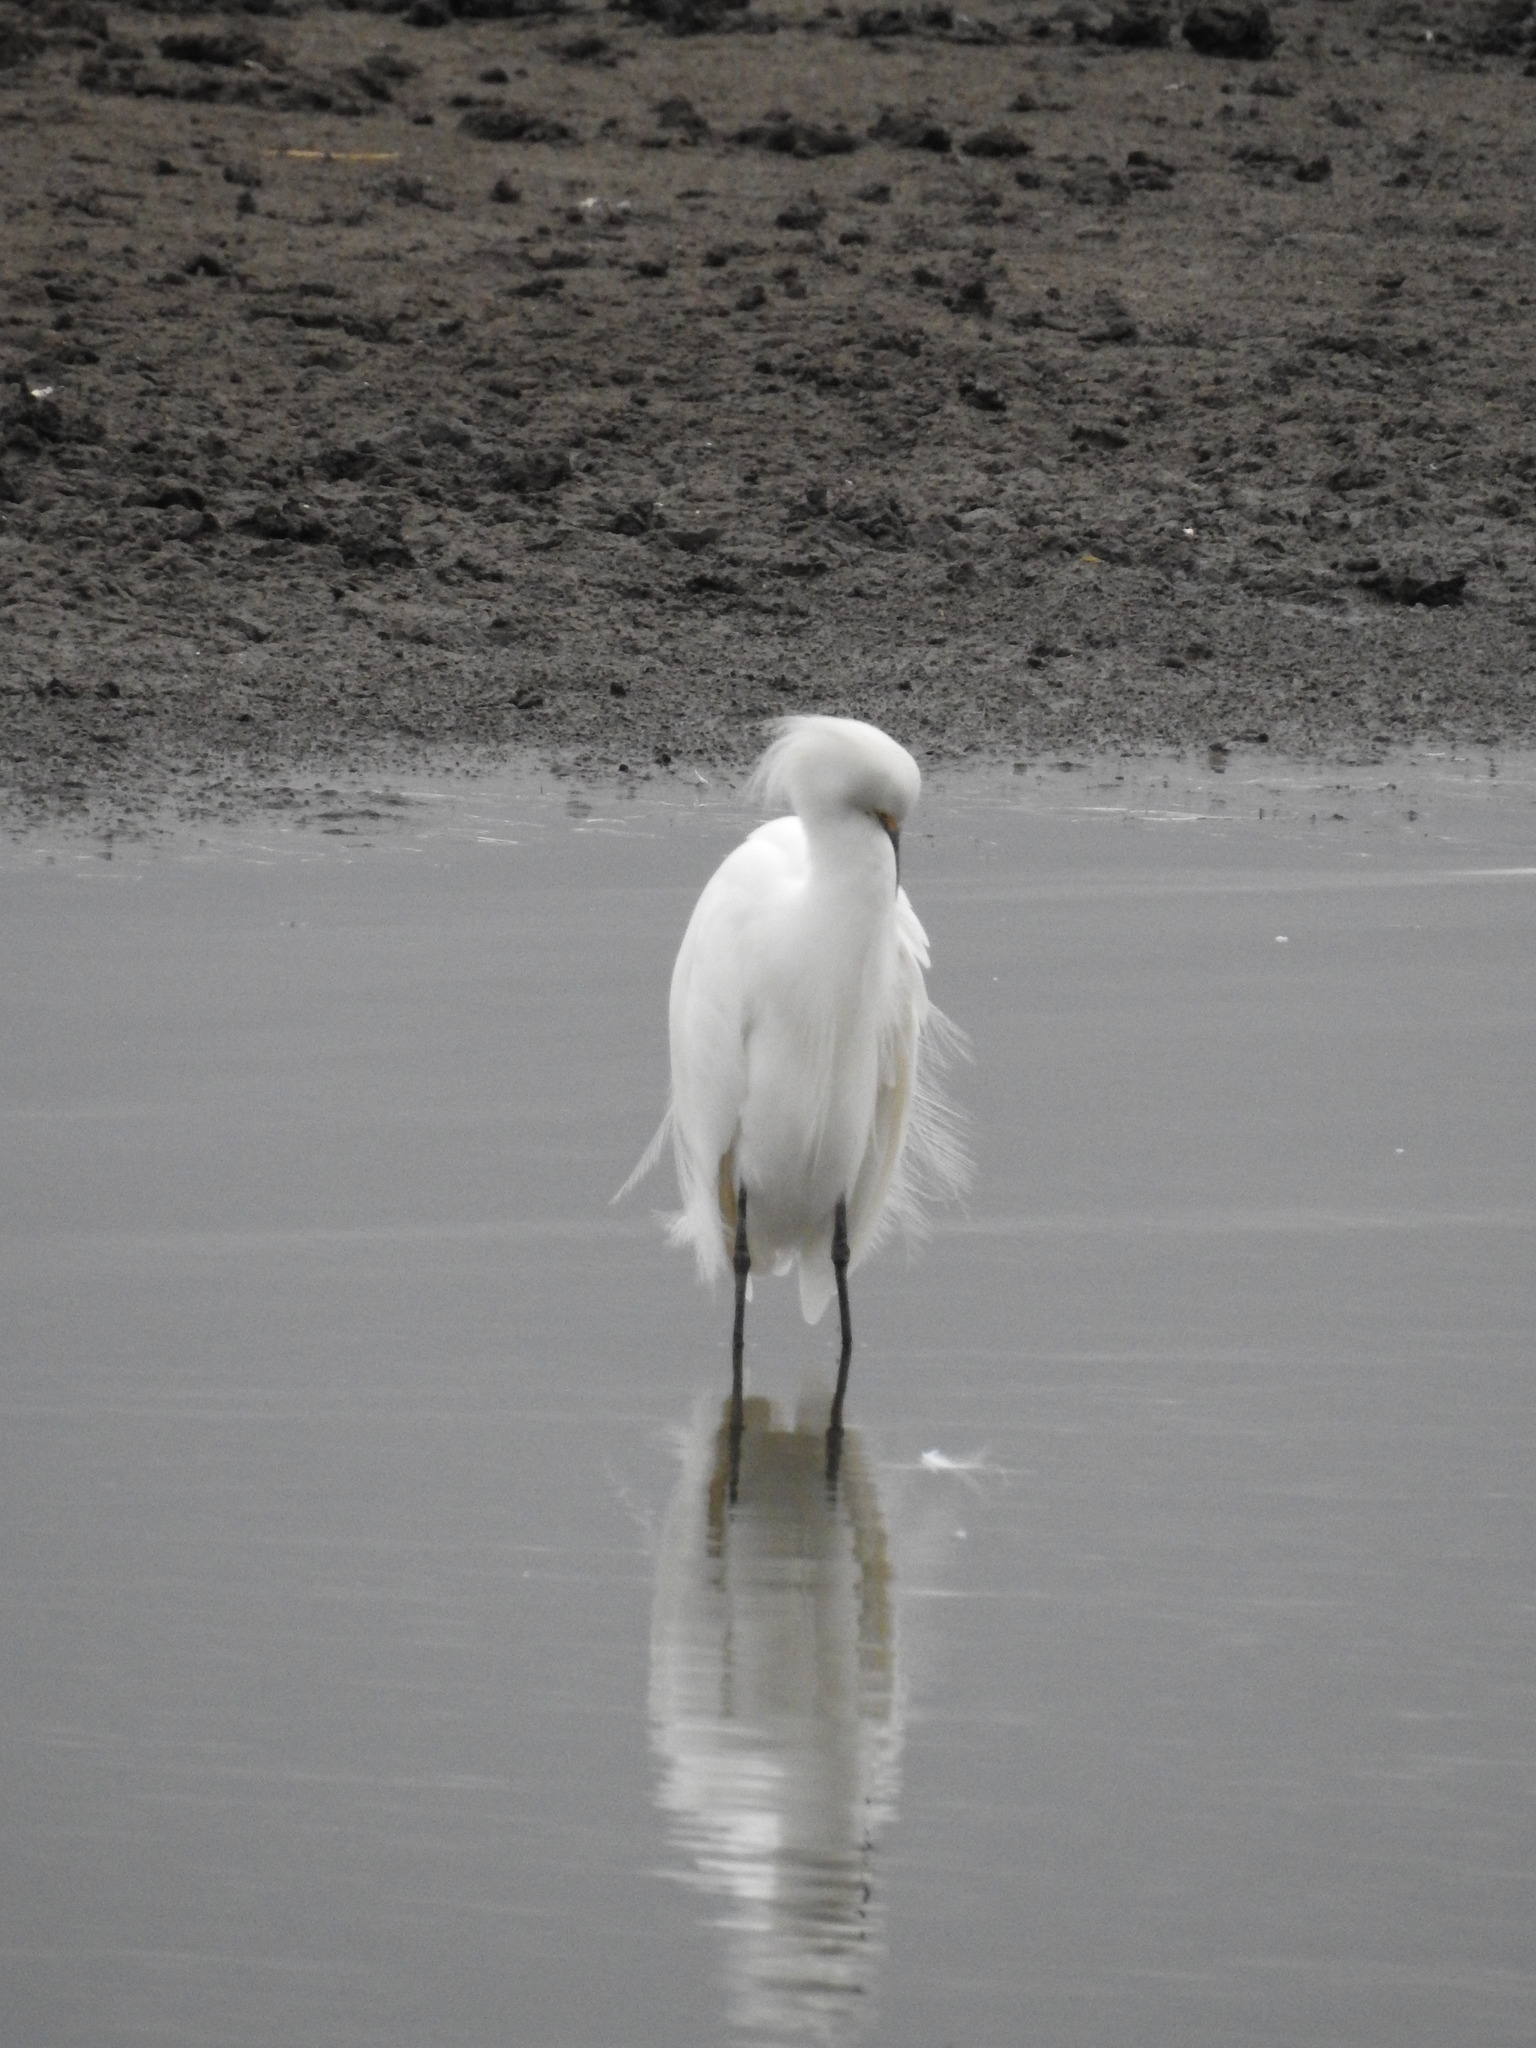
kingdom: Animalia
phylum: Chordata
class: Aves
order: Pelecaniformes
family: Ardeidae
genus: Egretta
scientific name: Egretta thula
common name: Snowy egret
